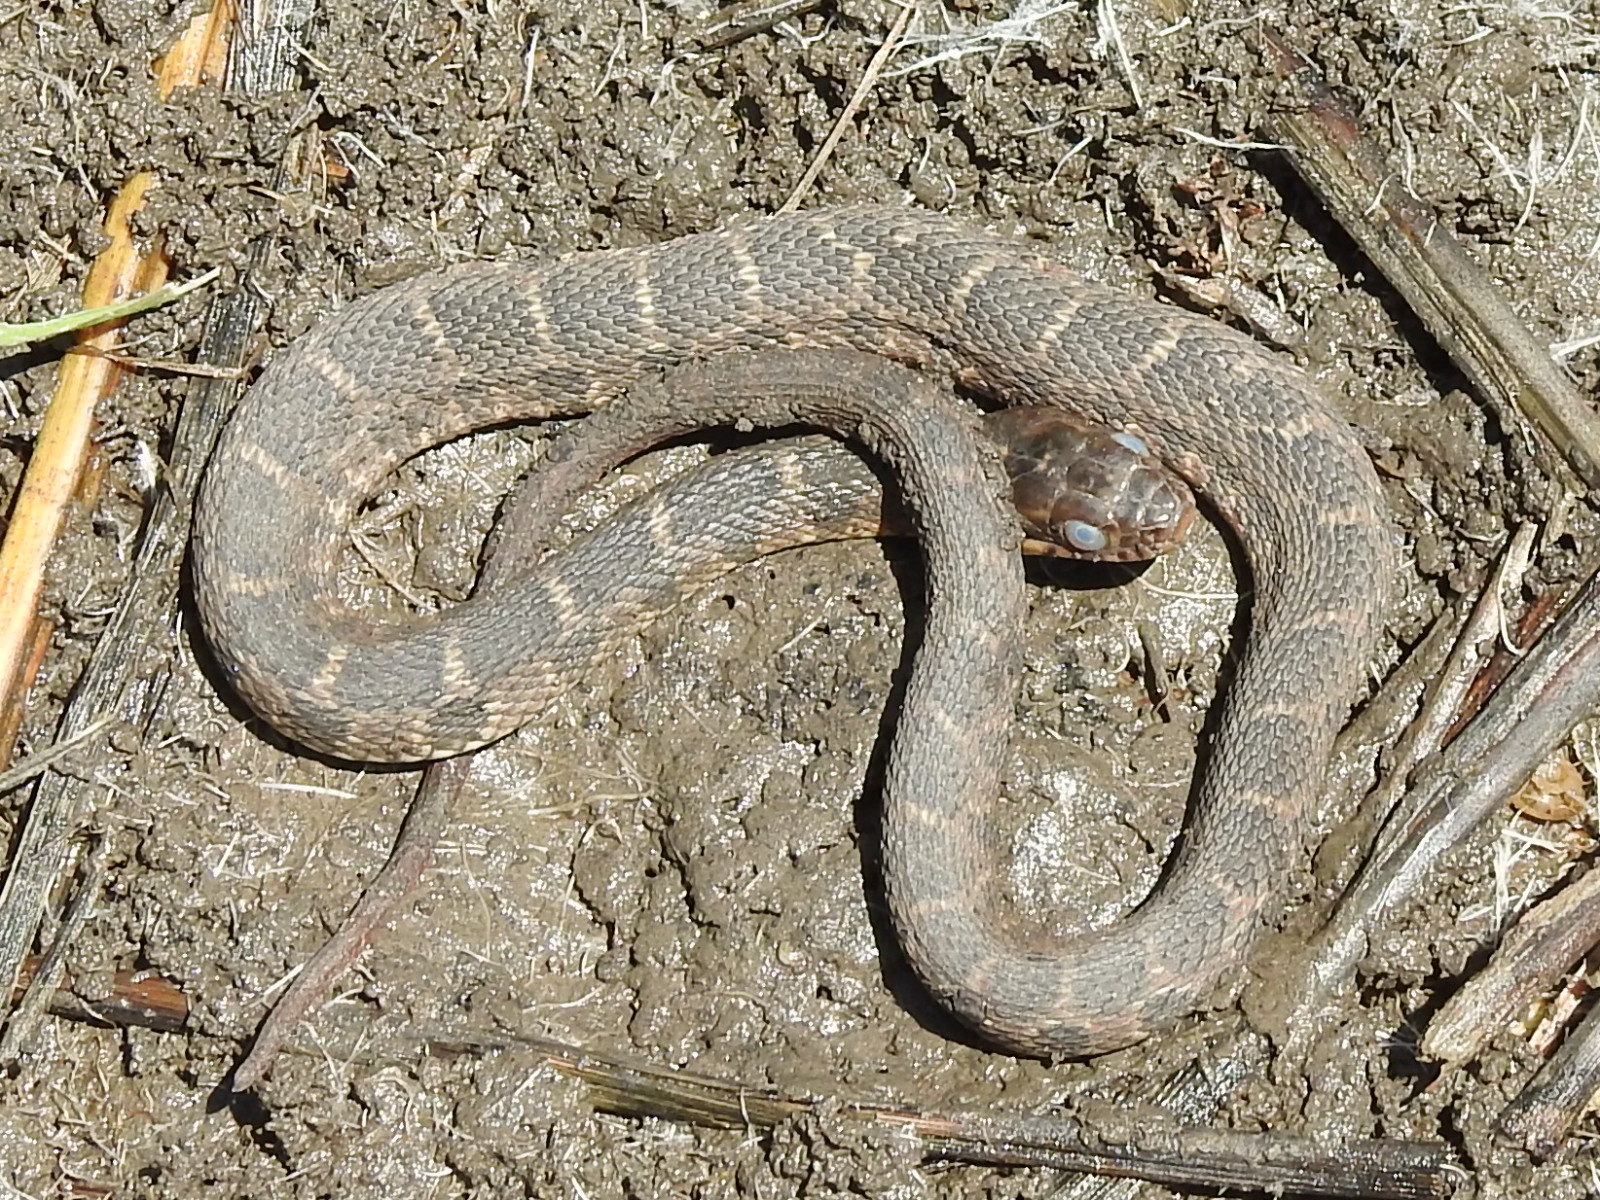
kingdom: Animalia
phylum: Chordata
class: Squamata
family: Colubridae
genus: Nerodia
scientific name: Nerodia erythrogaster
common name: Plainbelly water snake
